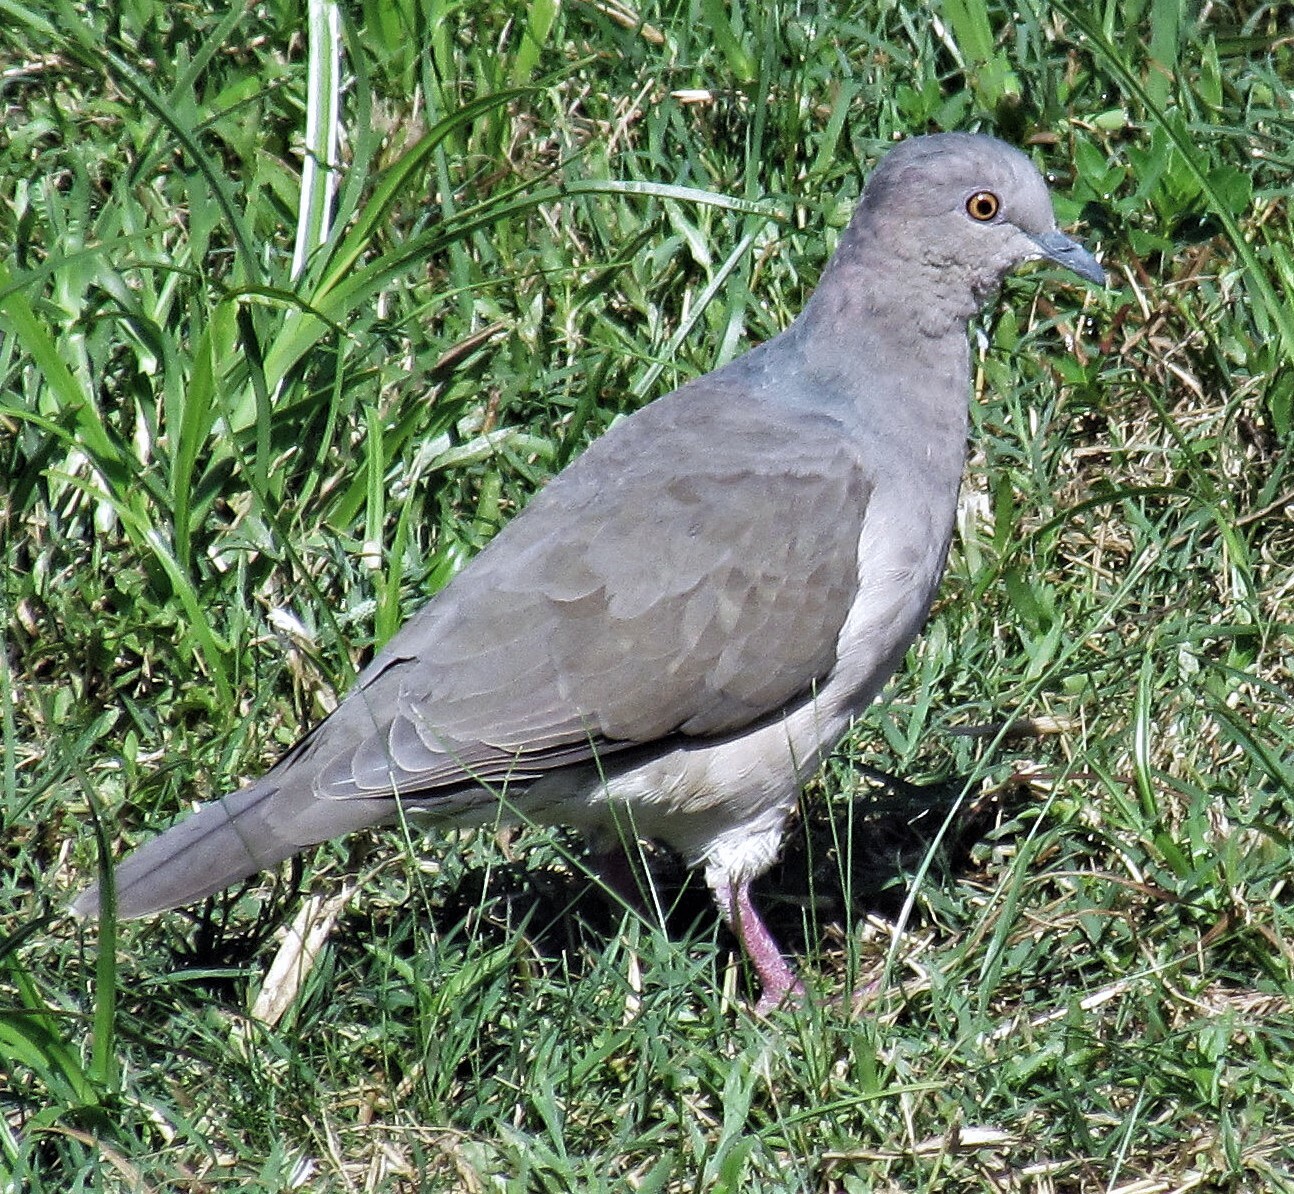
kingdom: Animalia
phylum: Chordata
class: Aves
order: Columbiformes
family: Columbidae
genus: Leptotila
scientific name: Leptotila verreauxi
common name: White-tipped dove
